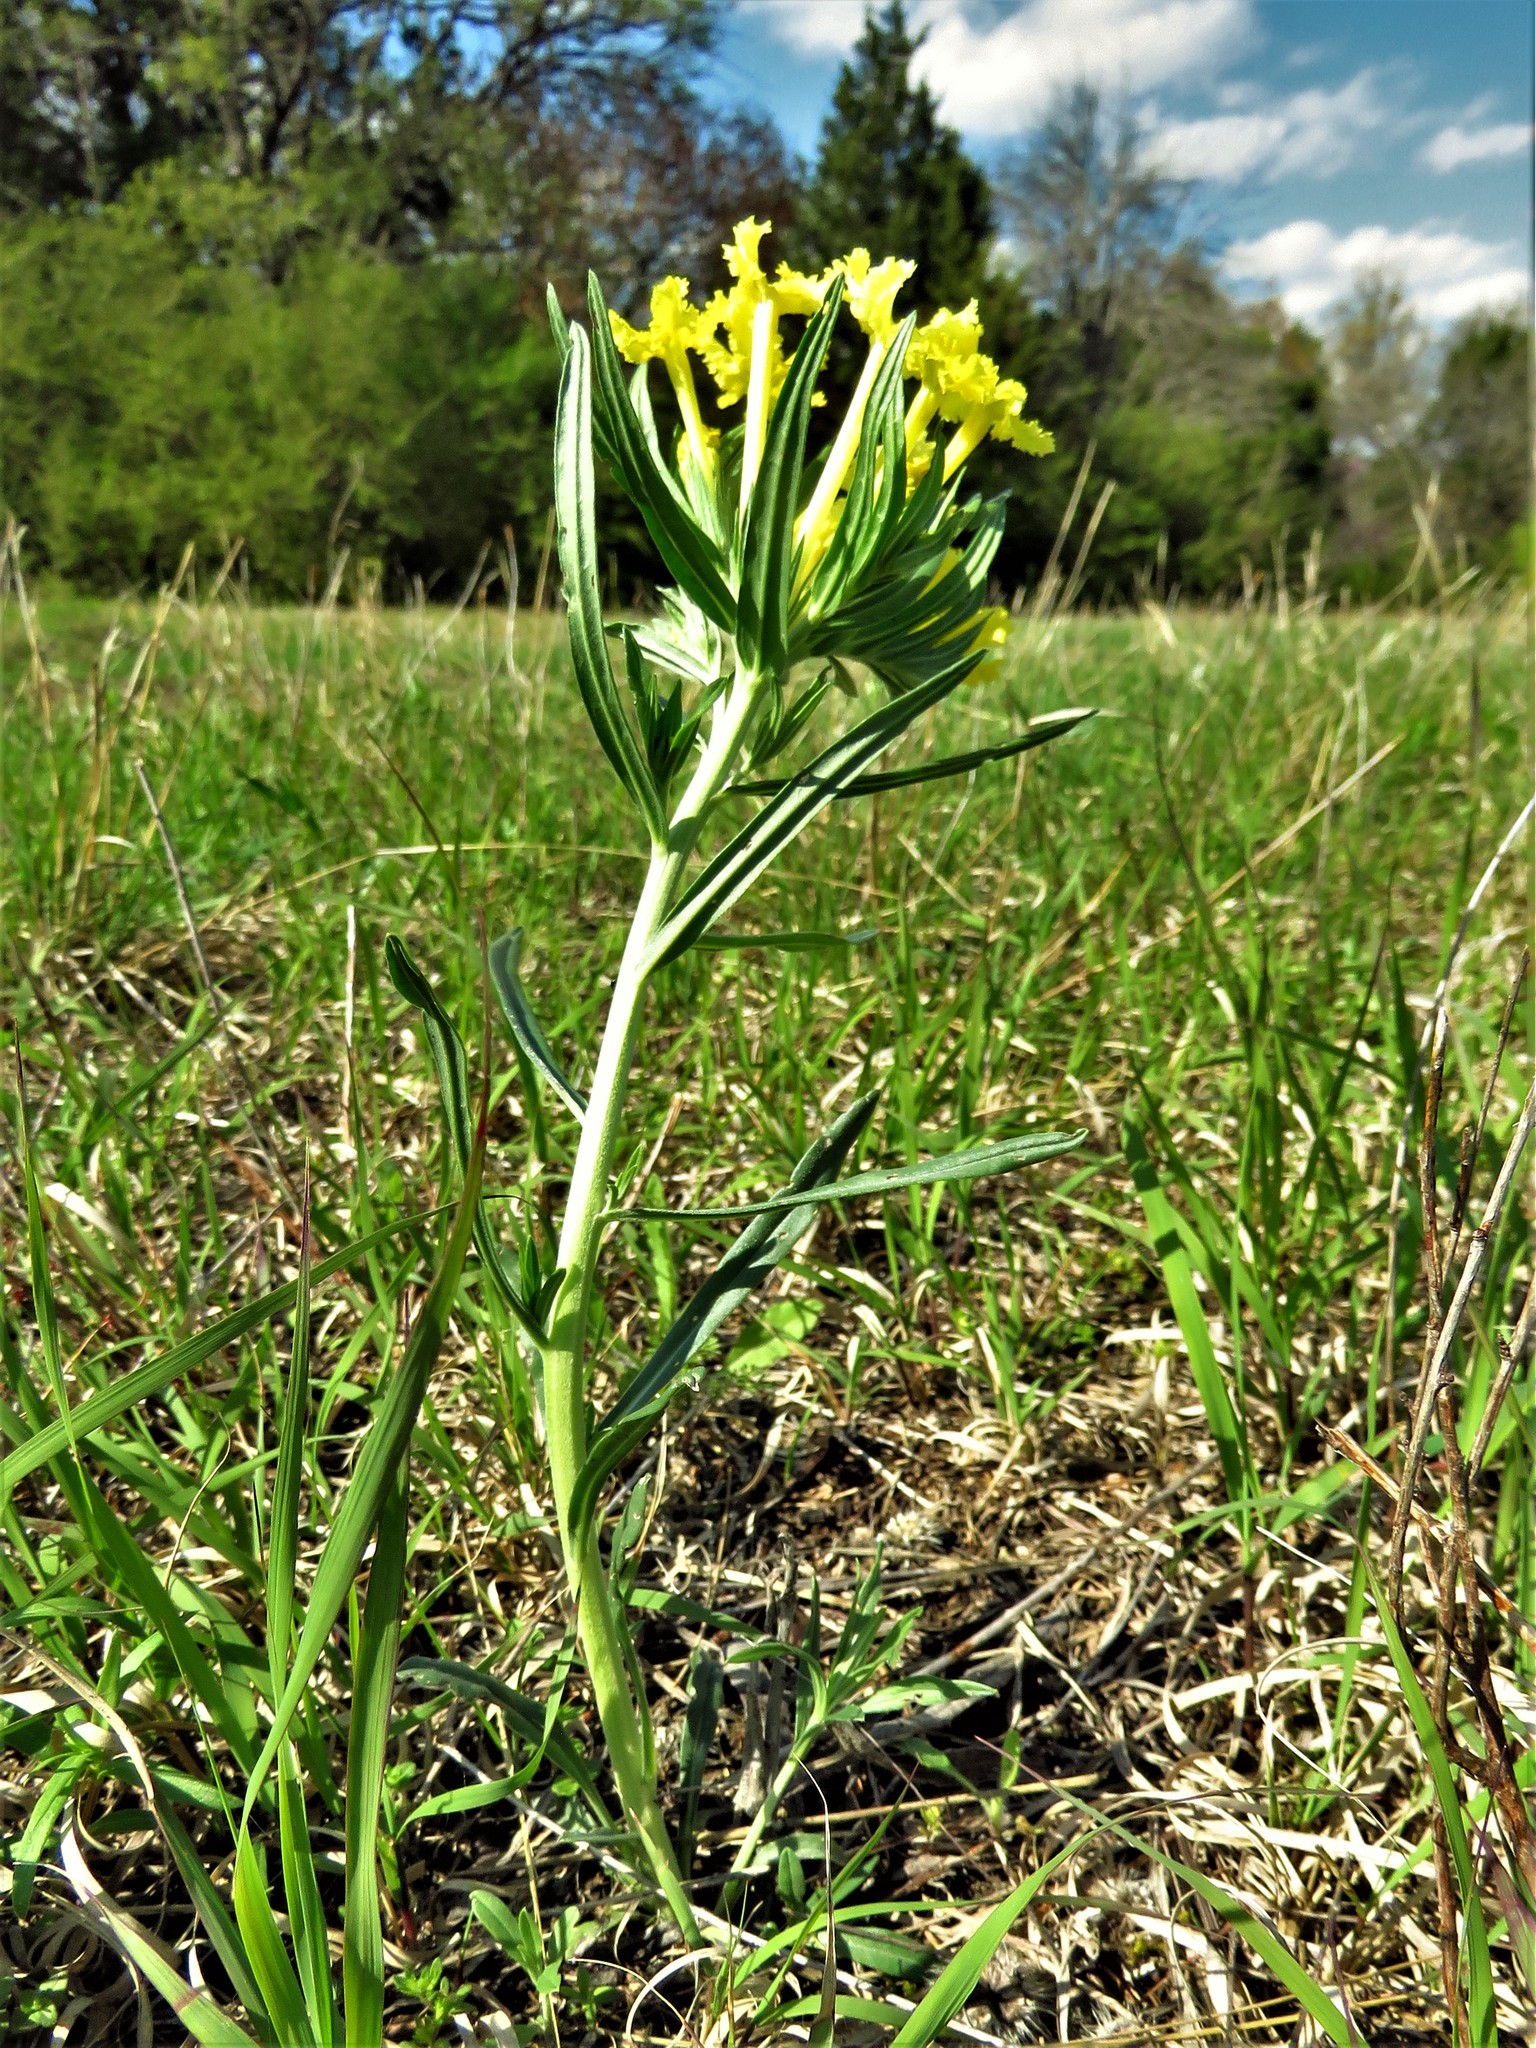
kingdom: Plantae
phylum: Tracheophyta
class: Magnoliopsida
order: Boraginales
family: Boraginaceae
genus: Lithospermum
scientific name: Lithospermum incisum
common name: Fringed gromwell
